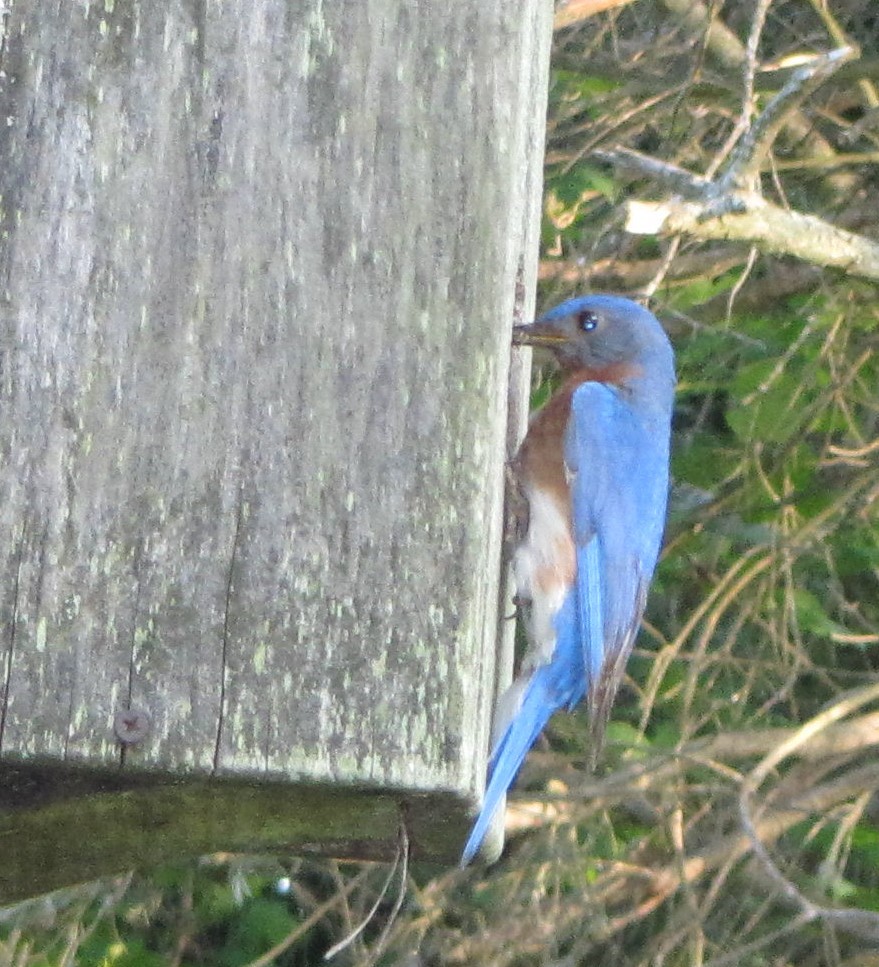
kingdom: Animalia
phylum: Chordata
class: Aves
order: Passeriformes
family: Turdidae
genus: Sialia
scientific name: Sialia sialis
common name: Eastern bluebird
